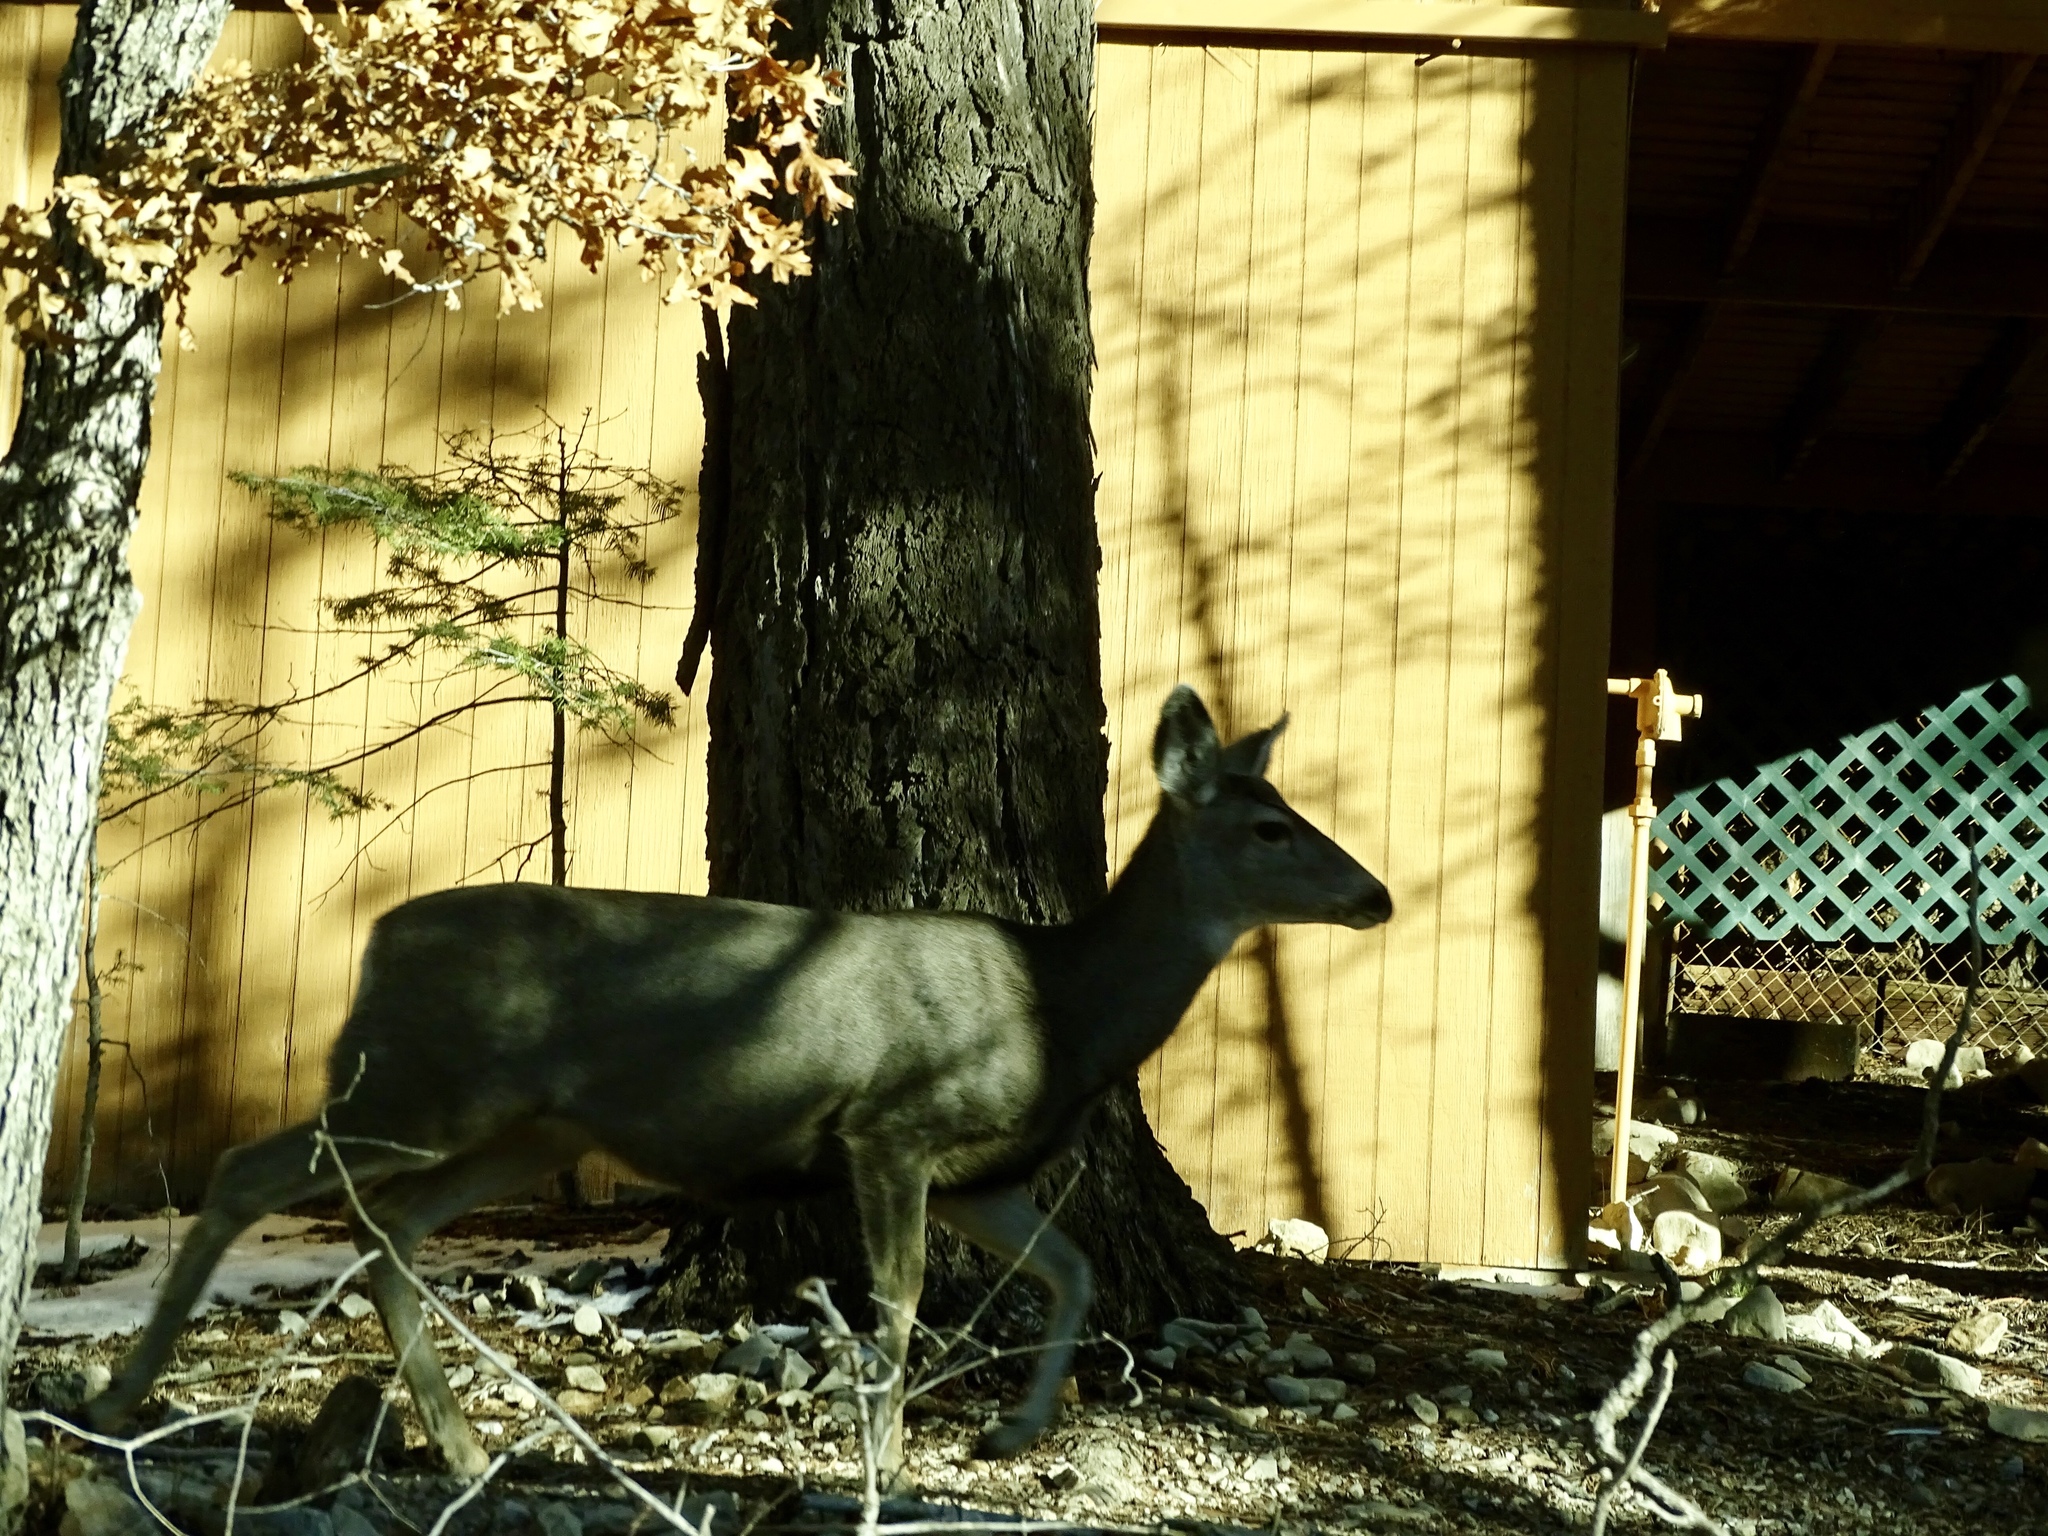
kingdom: Animalia
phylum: Chordata
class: Mammalia
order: Artiodactyla
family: Cervidae
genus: Odocoileus
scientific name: Odocoileus hemionus
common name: Mule deer
